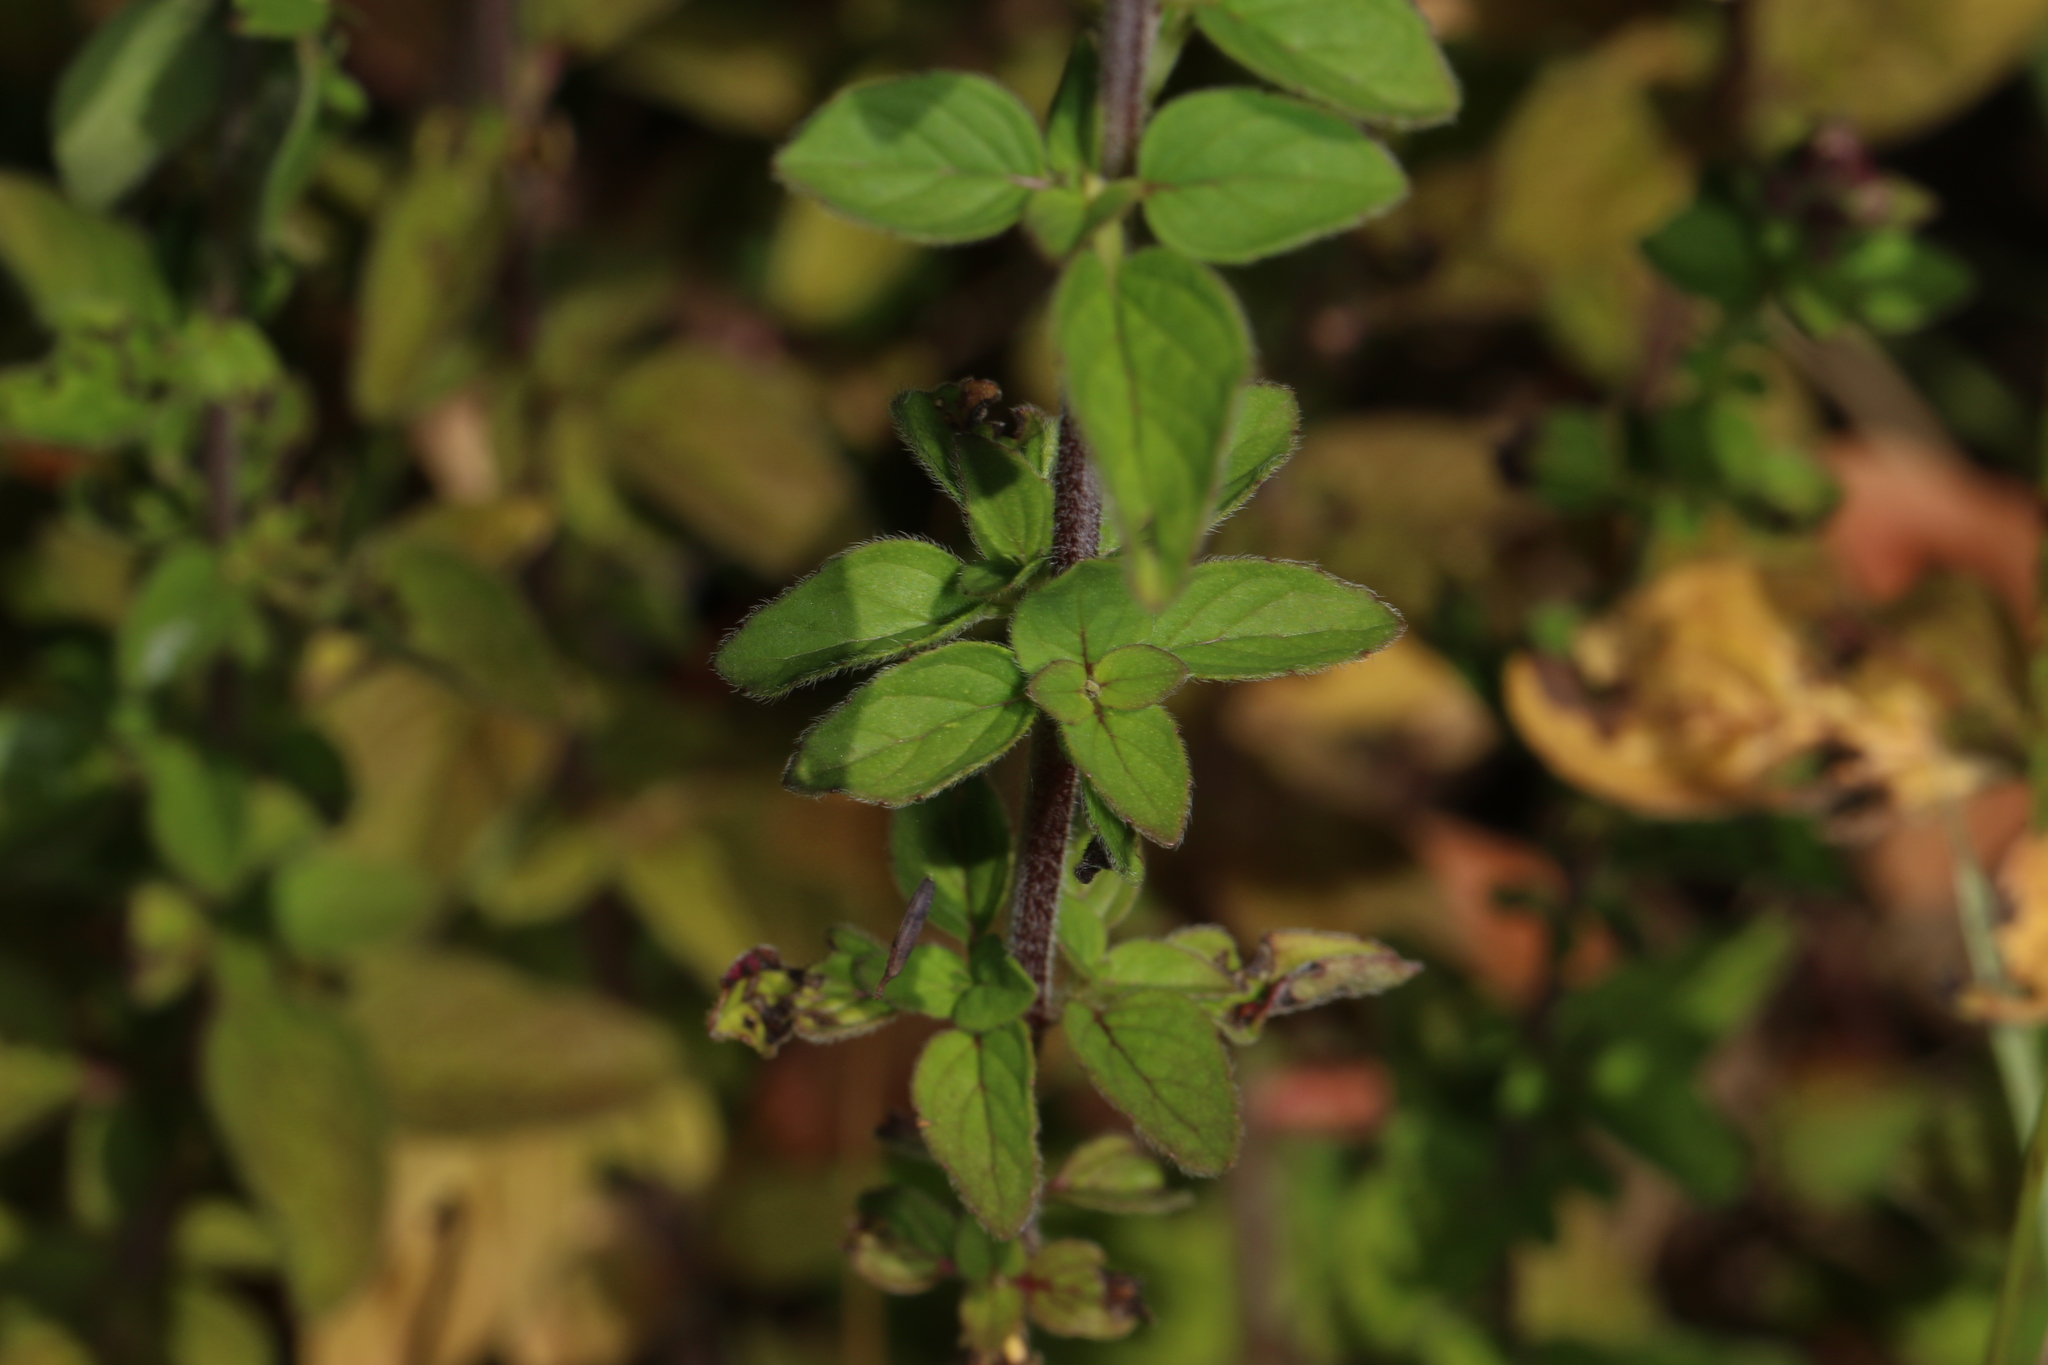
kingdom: Plantae
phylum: Tracheophyta
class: Magnoliopsida
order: Lamiales
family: Lamiaceae
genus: Origanum
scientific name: Origanum vulgare
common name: Wild marjoram
